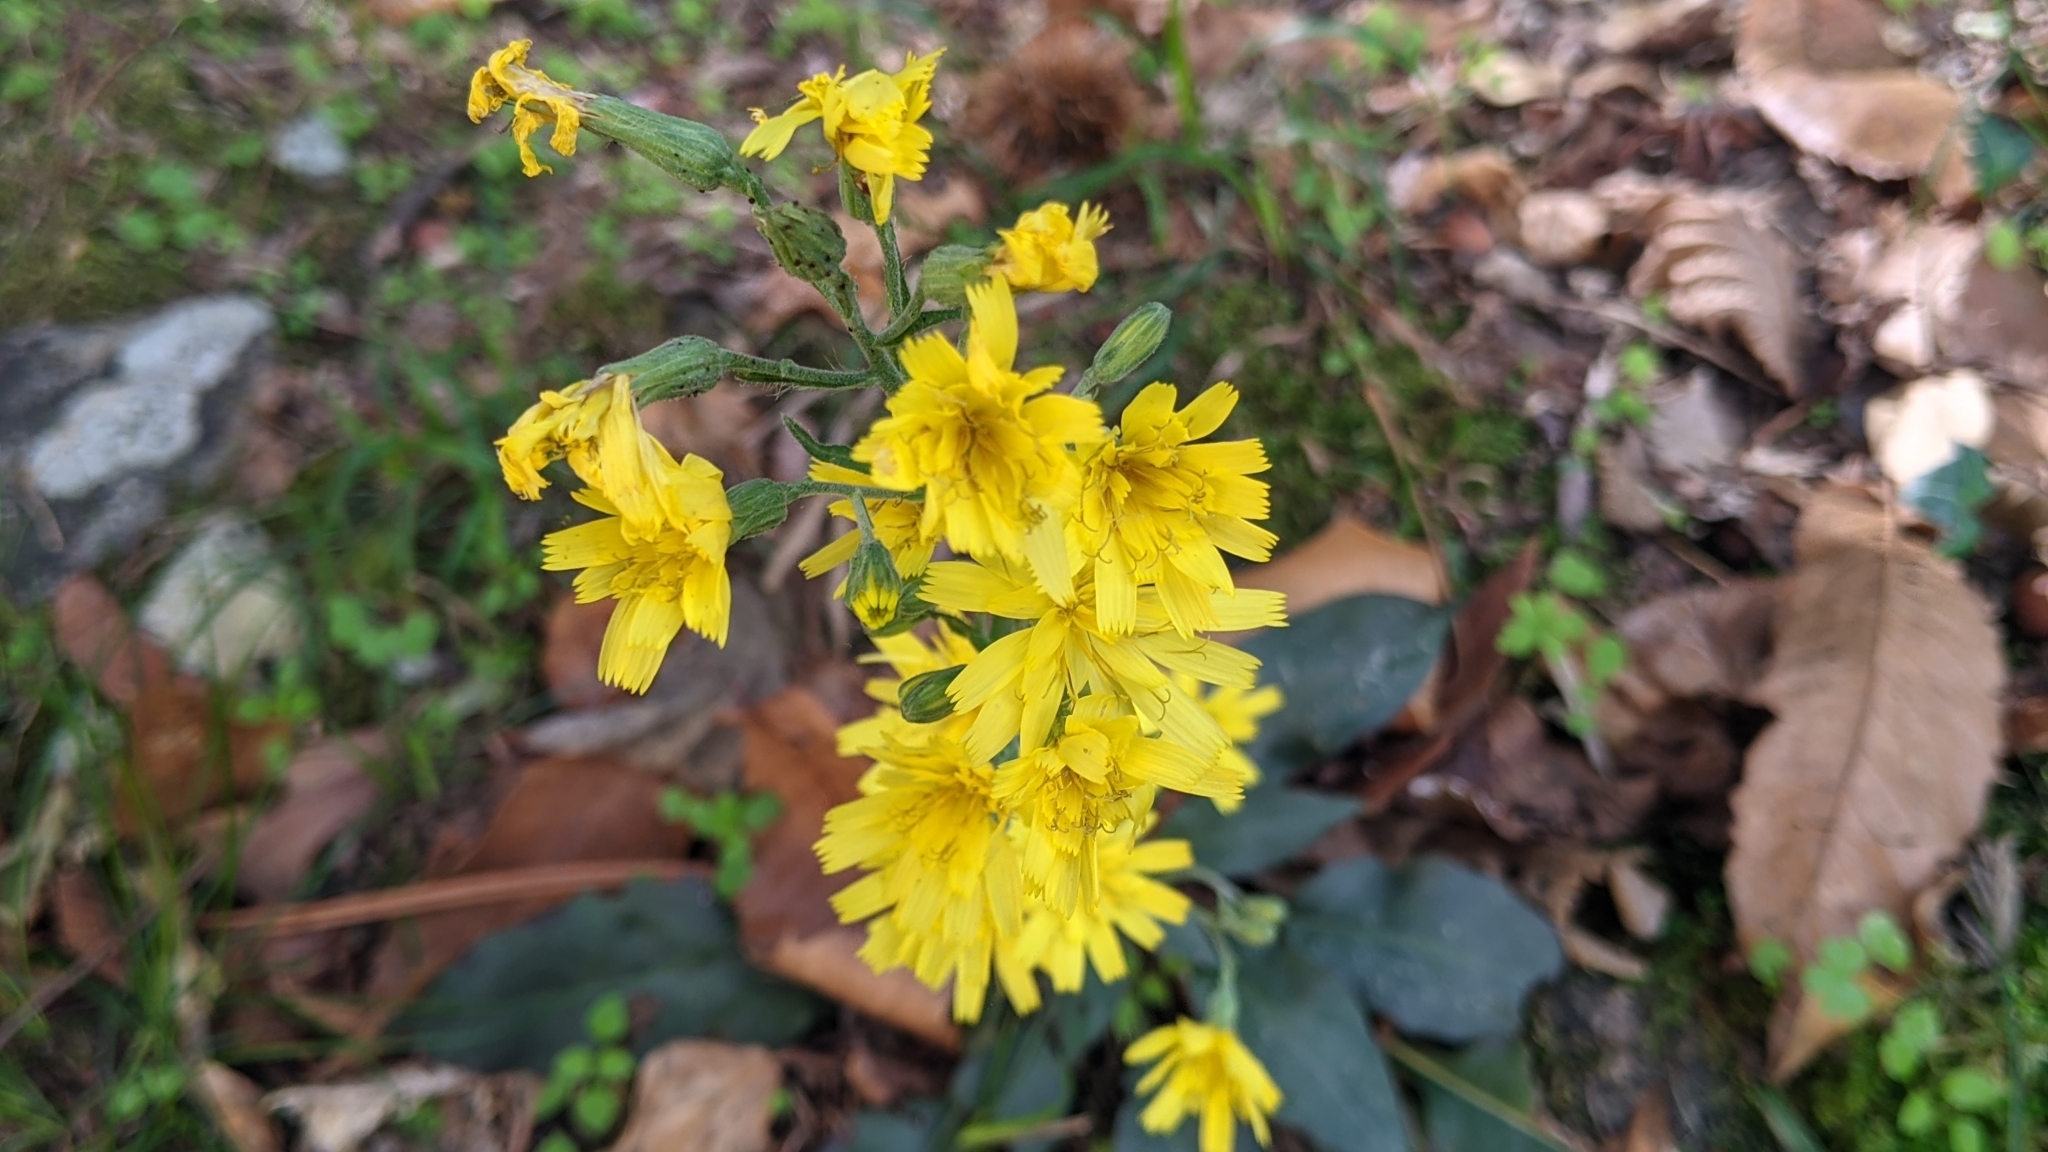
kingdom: Plantae
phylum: Tracheophyta
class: Magnoliopsida
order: Asterales
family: Asteraceae
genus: Hieracium
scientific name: Hieracium racemosum
